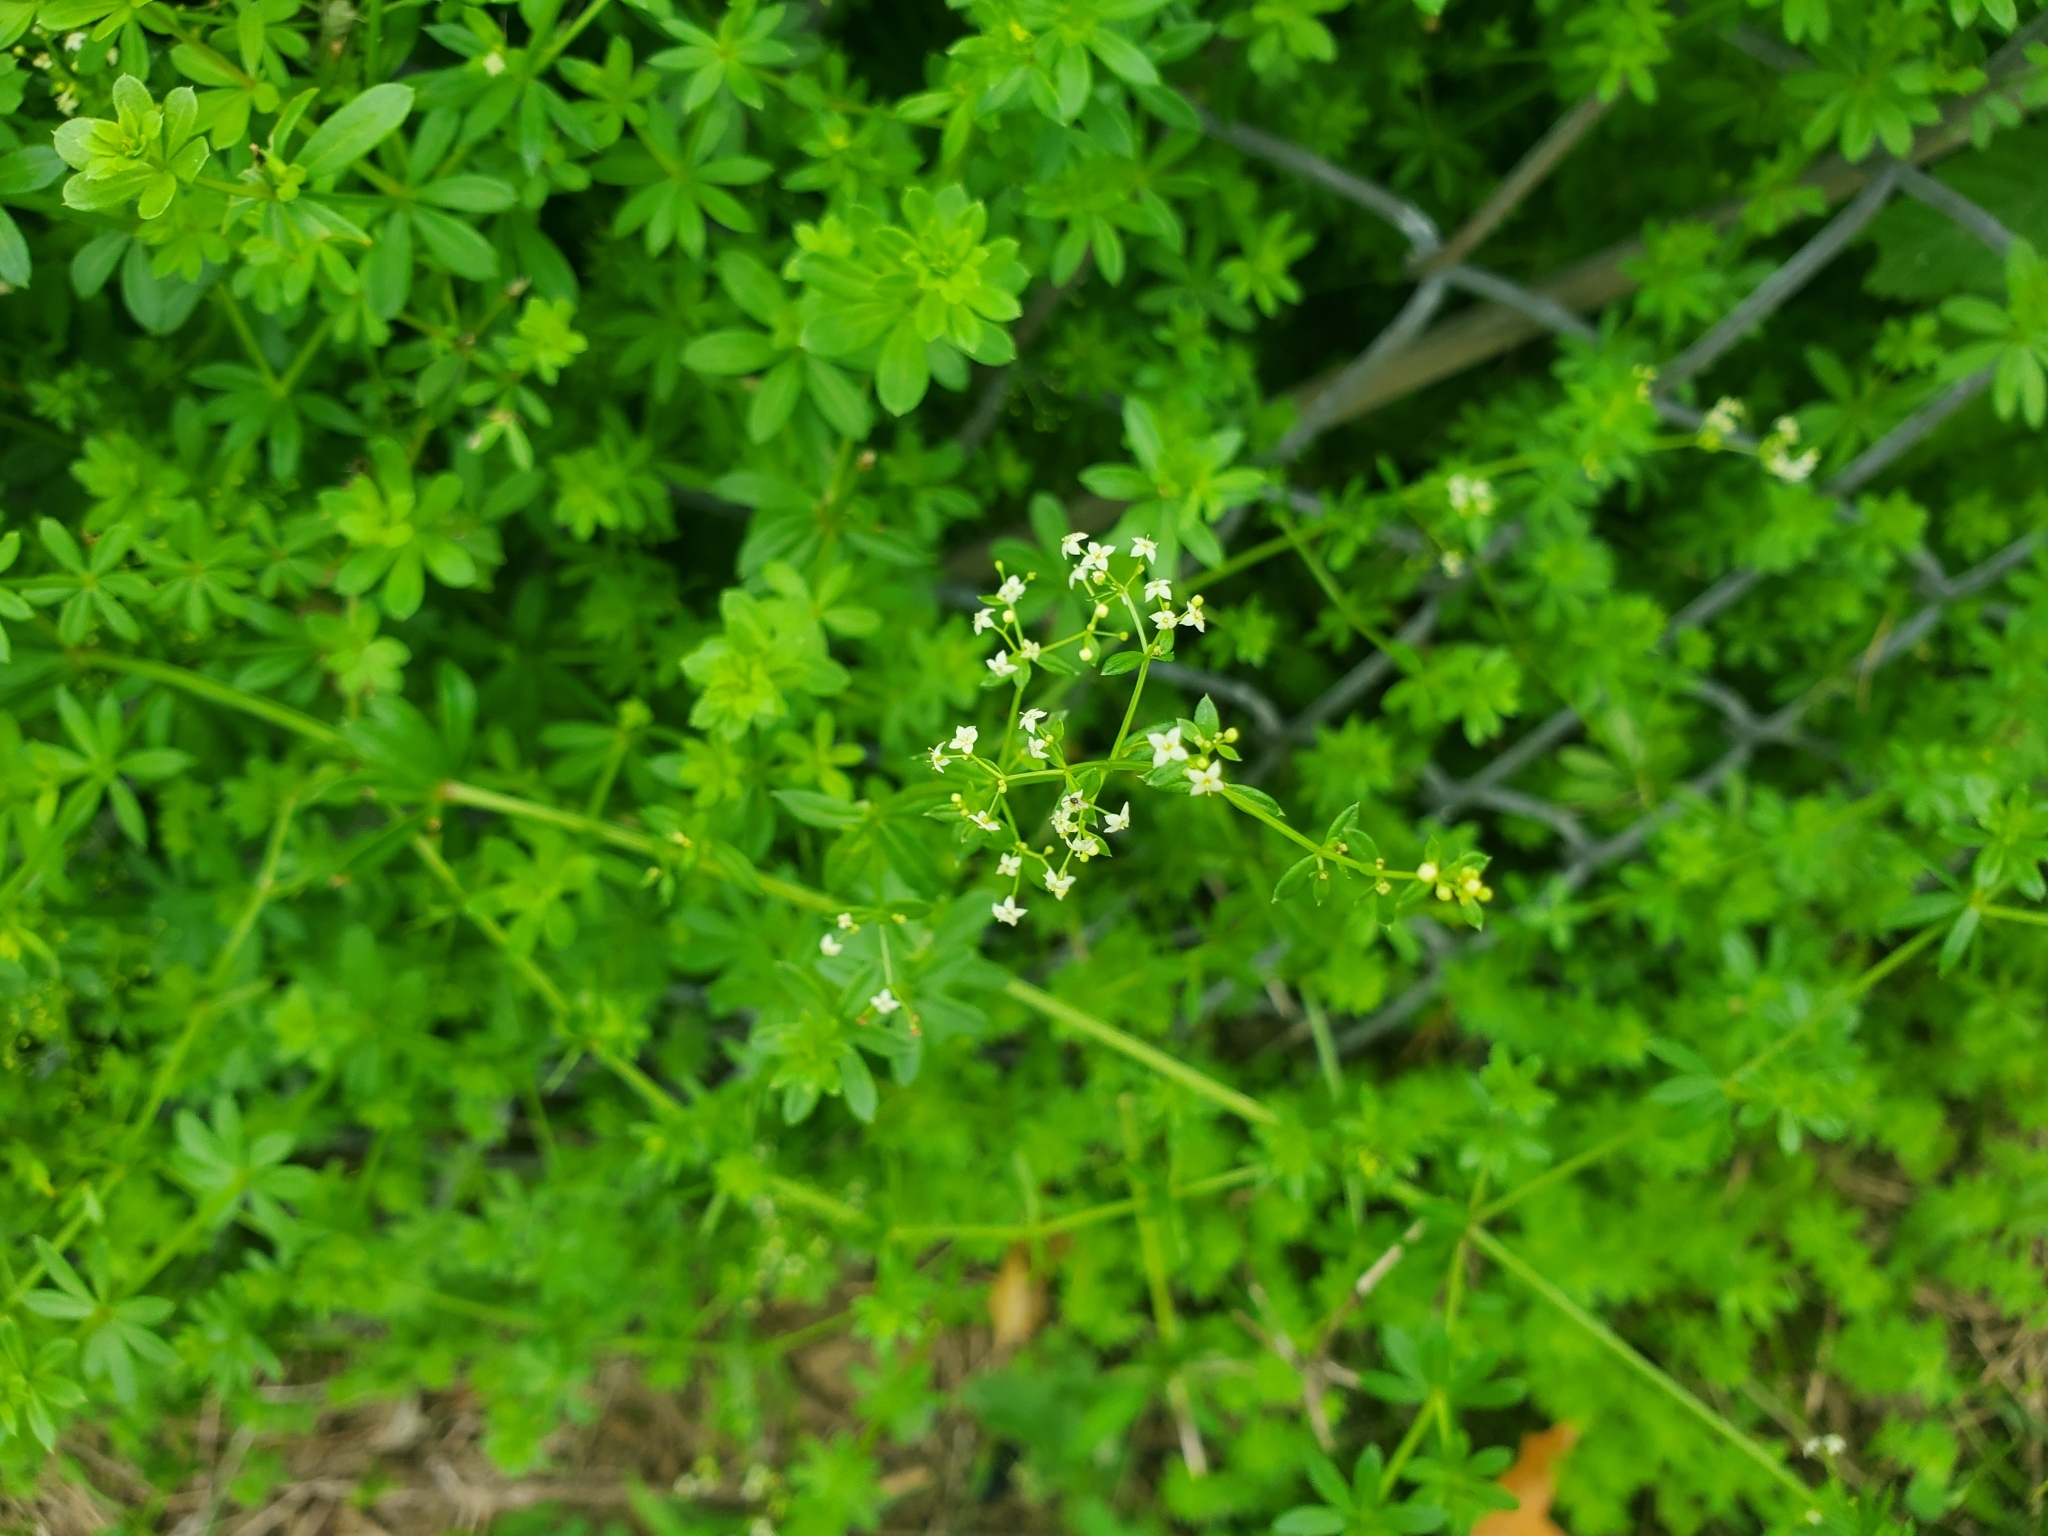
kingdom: Plantae
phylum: Tracheophyta
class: Magnoliopsida
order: Gentianales
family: Rubiaceae
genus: Galium
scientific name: Galium mollugo
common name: Hedge bedstraw
